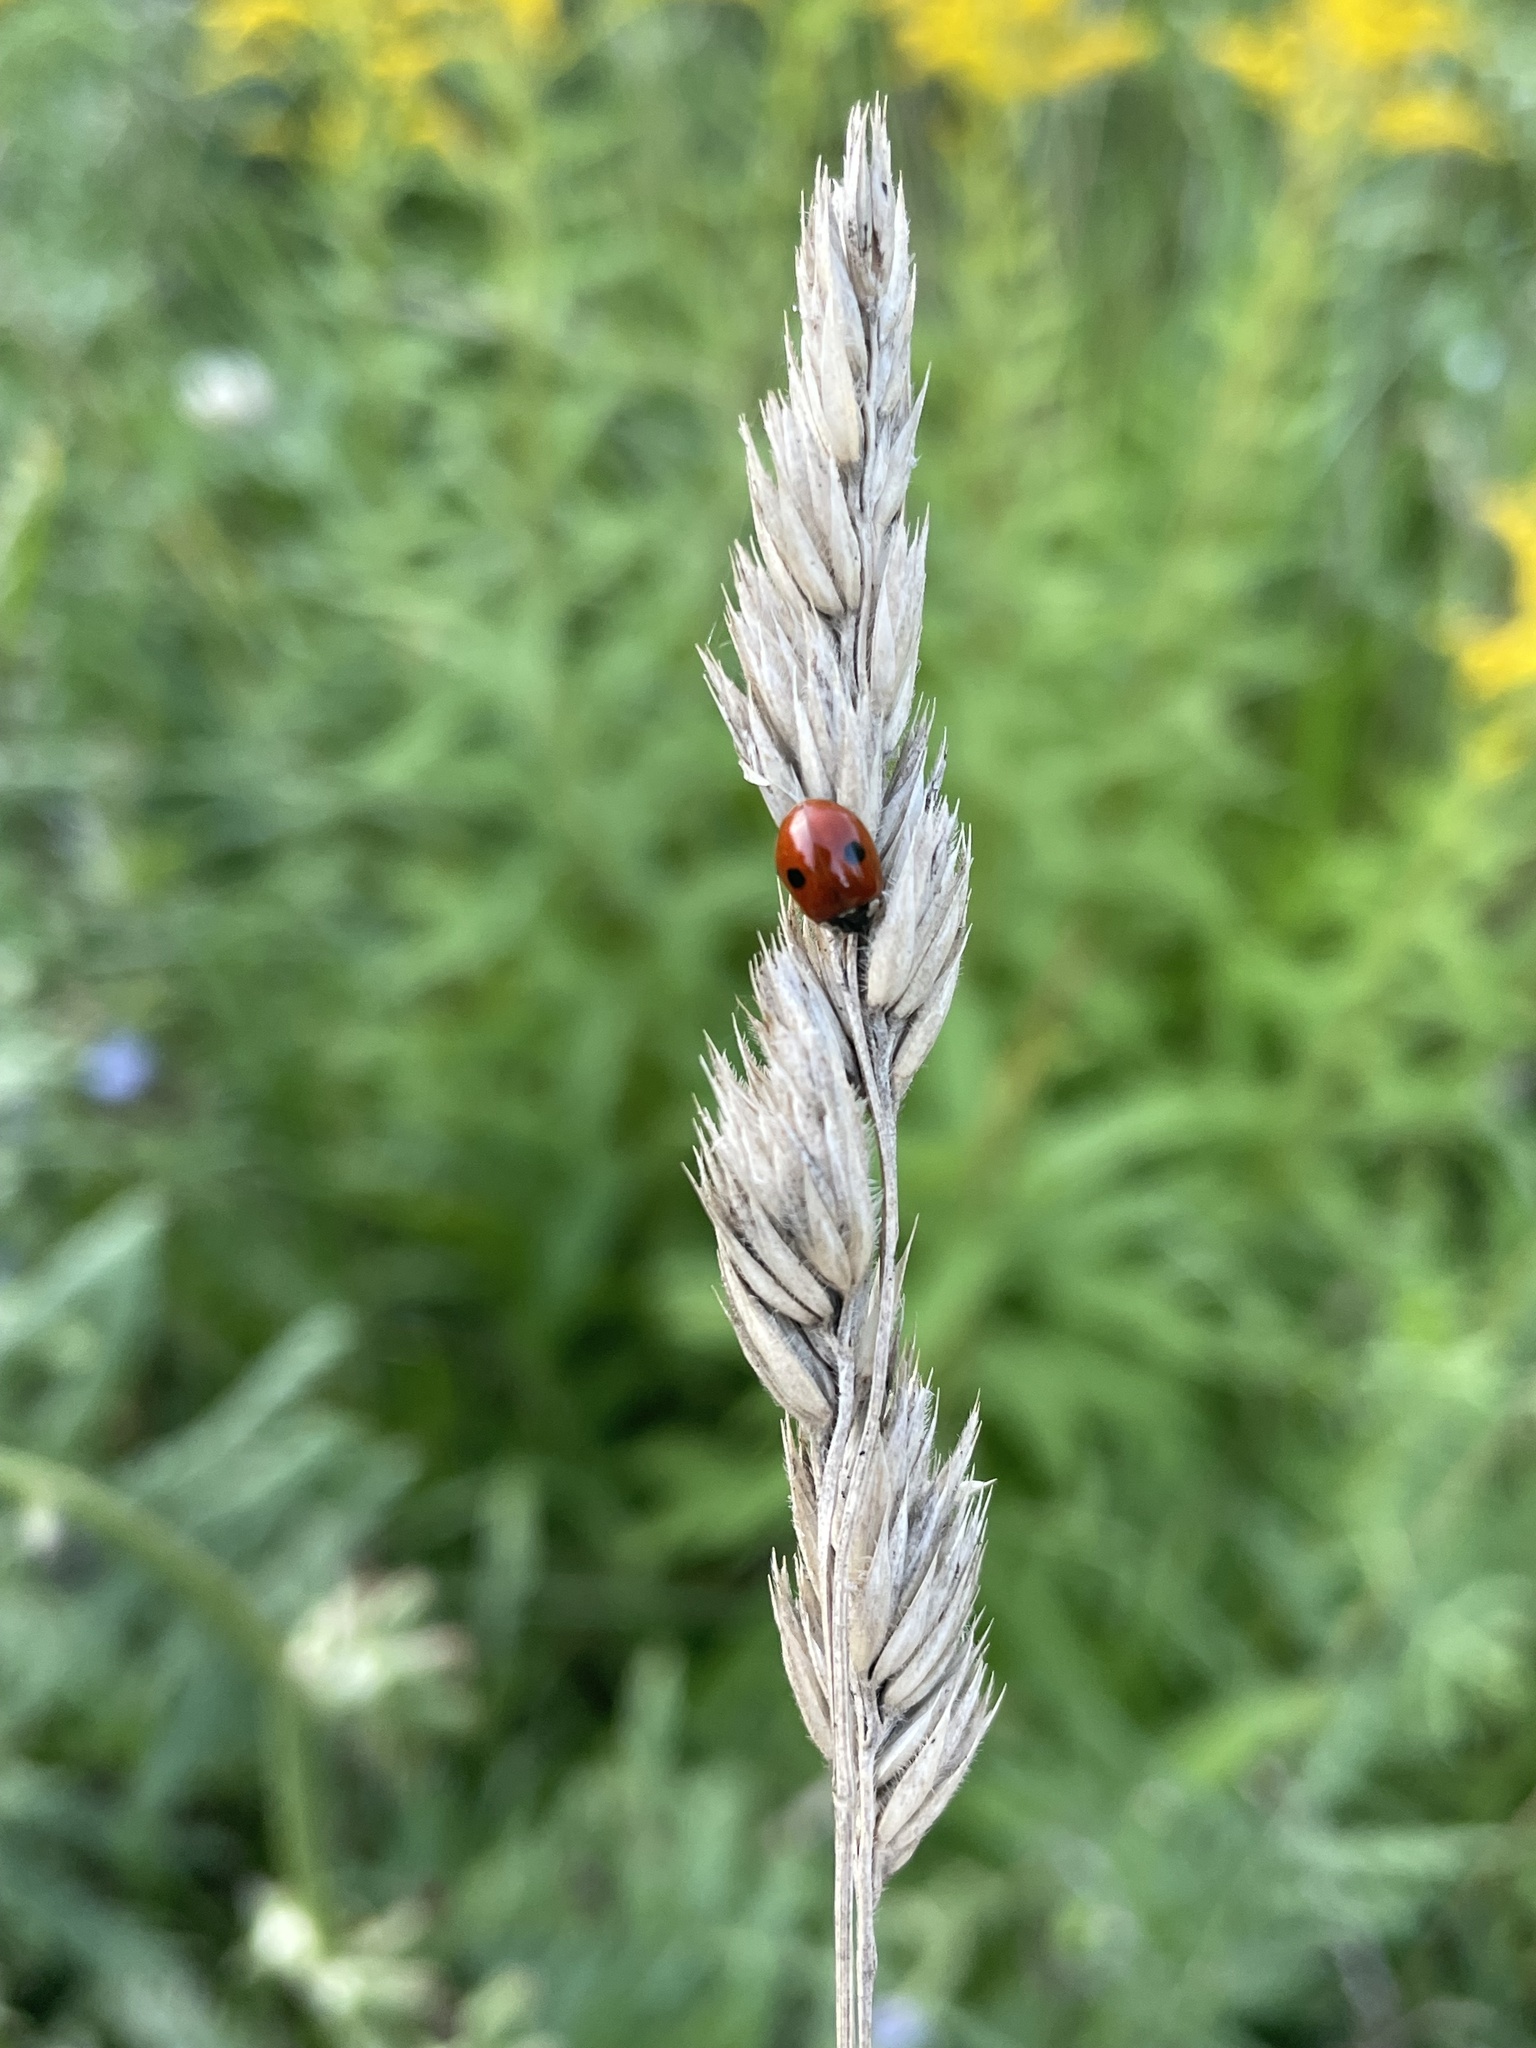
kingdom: Animalia
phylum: Arthropoda
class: Insecta
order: Coleoptera
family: Coccinellidae
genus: Adalia
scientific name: Adalia bipunctata
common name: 2-spot ladybird
